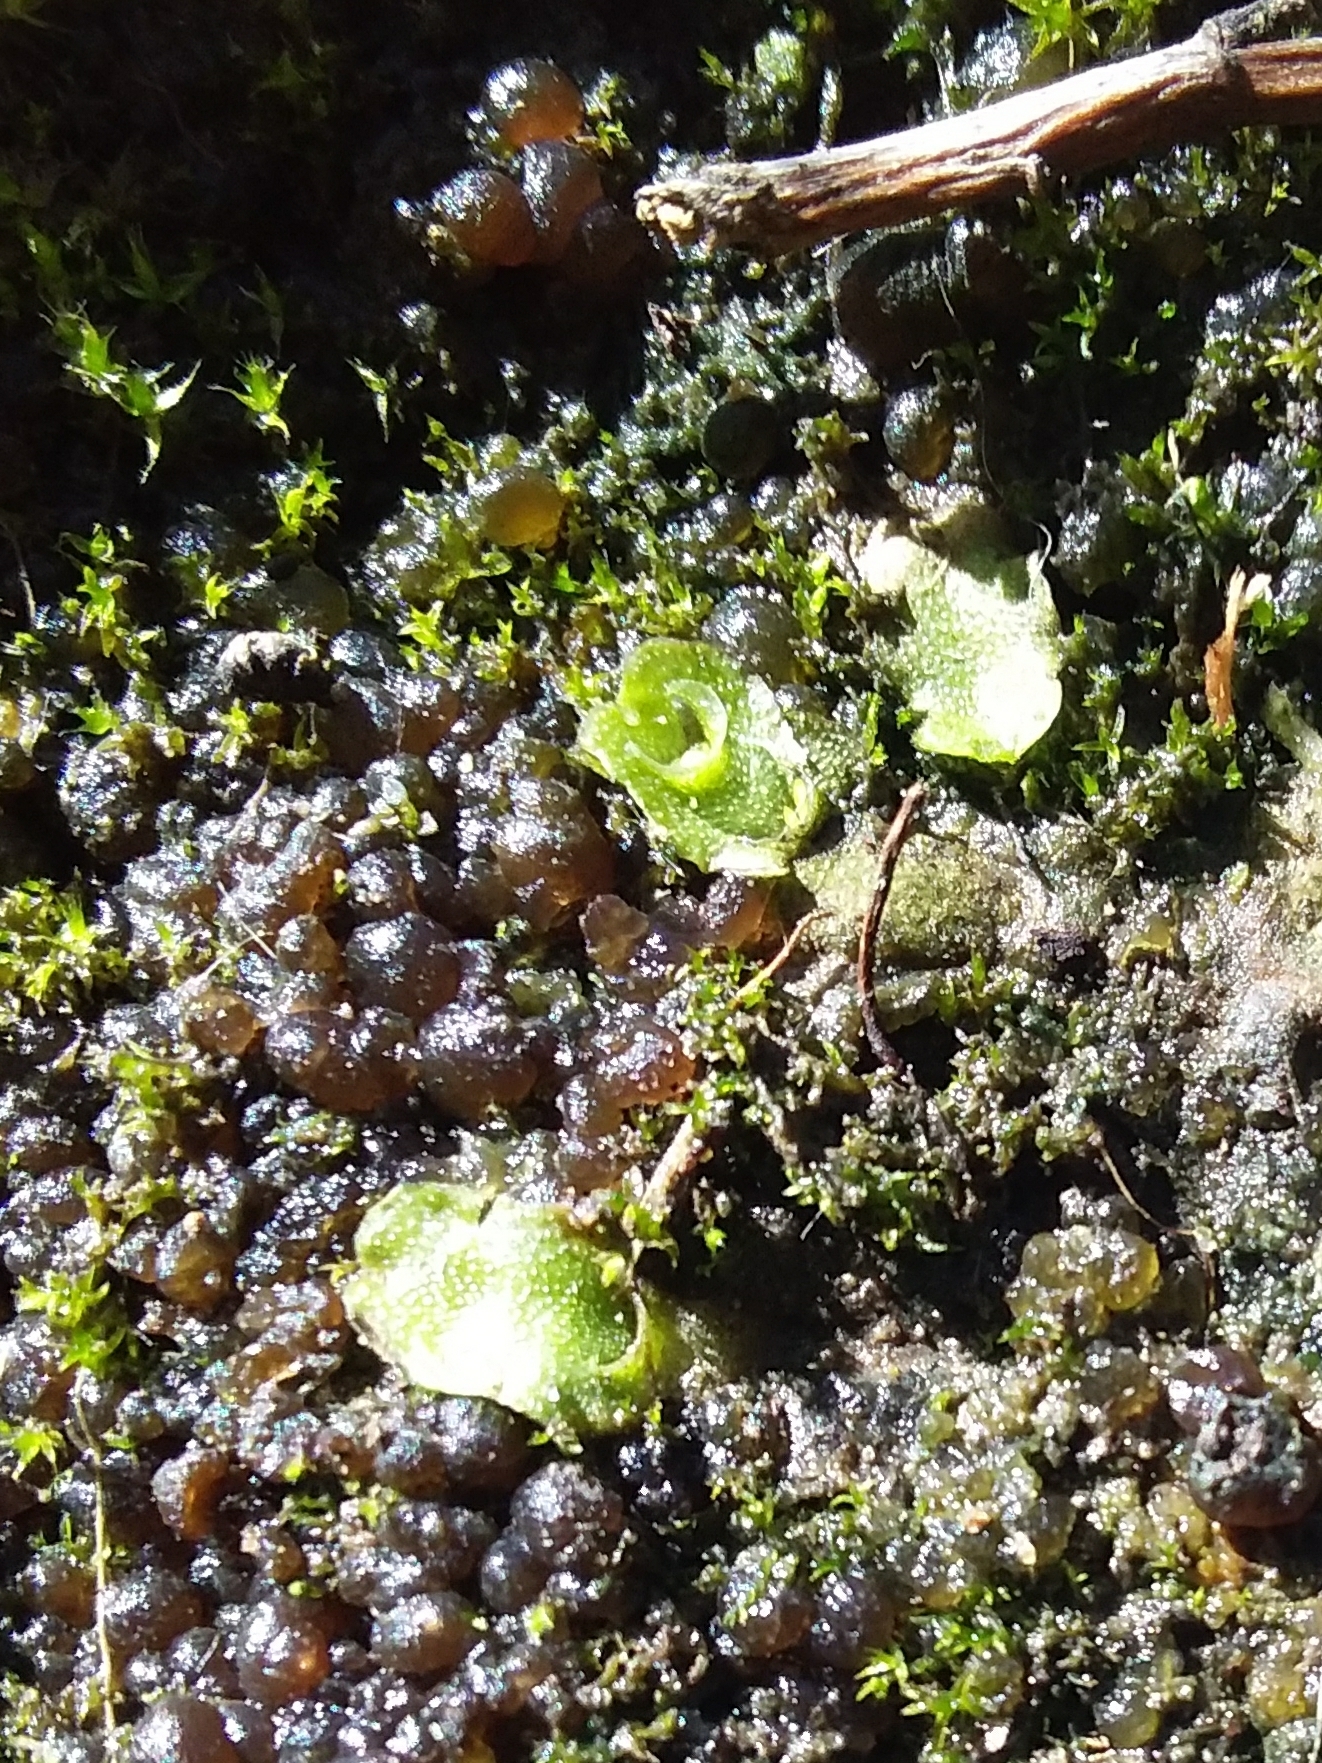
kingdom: Plantae
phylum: Marchantiophyta
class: Marchantiopsida
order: Lunulariales
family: Lunulariaceae
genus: Lunularia
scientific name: Lunularia cruciata
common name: Crescent-cup liverwort
